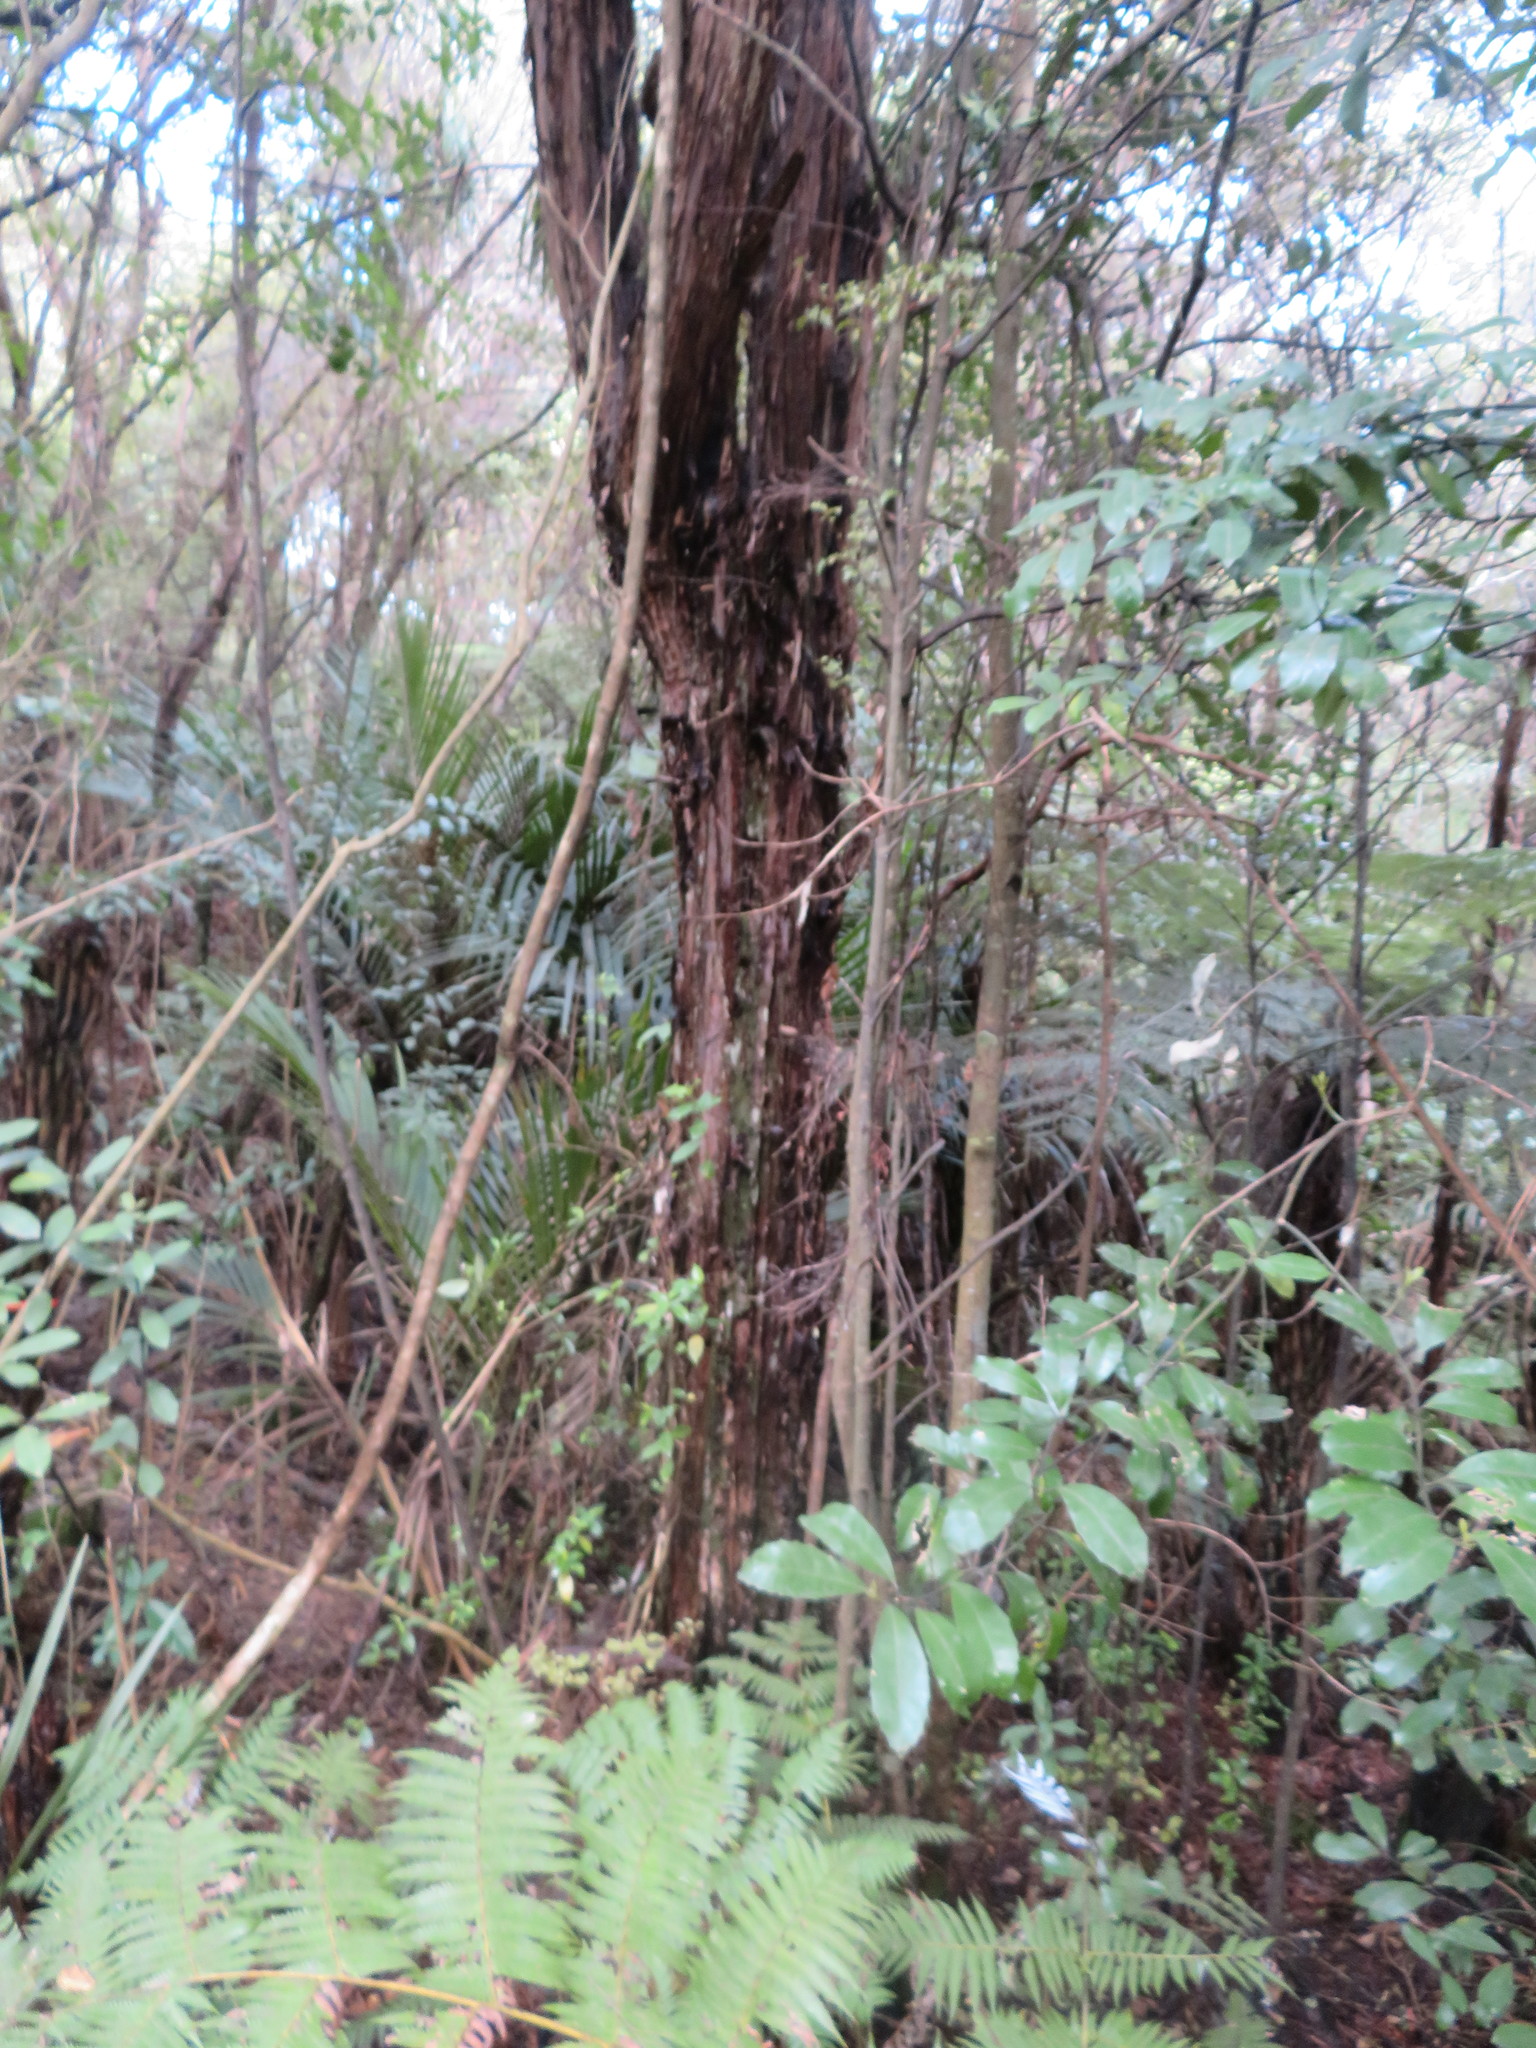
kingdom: Plantae
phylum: Tracheophyta
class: Magnoliopsida
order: Laurales
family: Monimiaceae
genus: Hedycarya
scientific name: Hedycarya arborea
